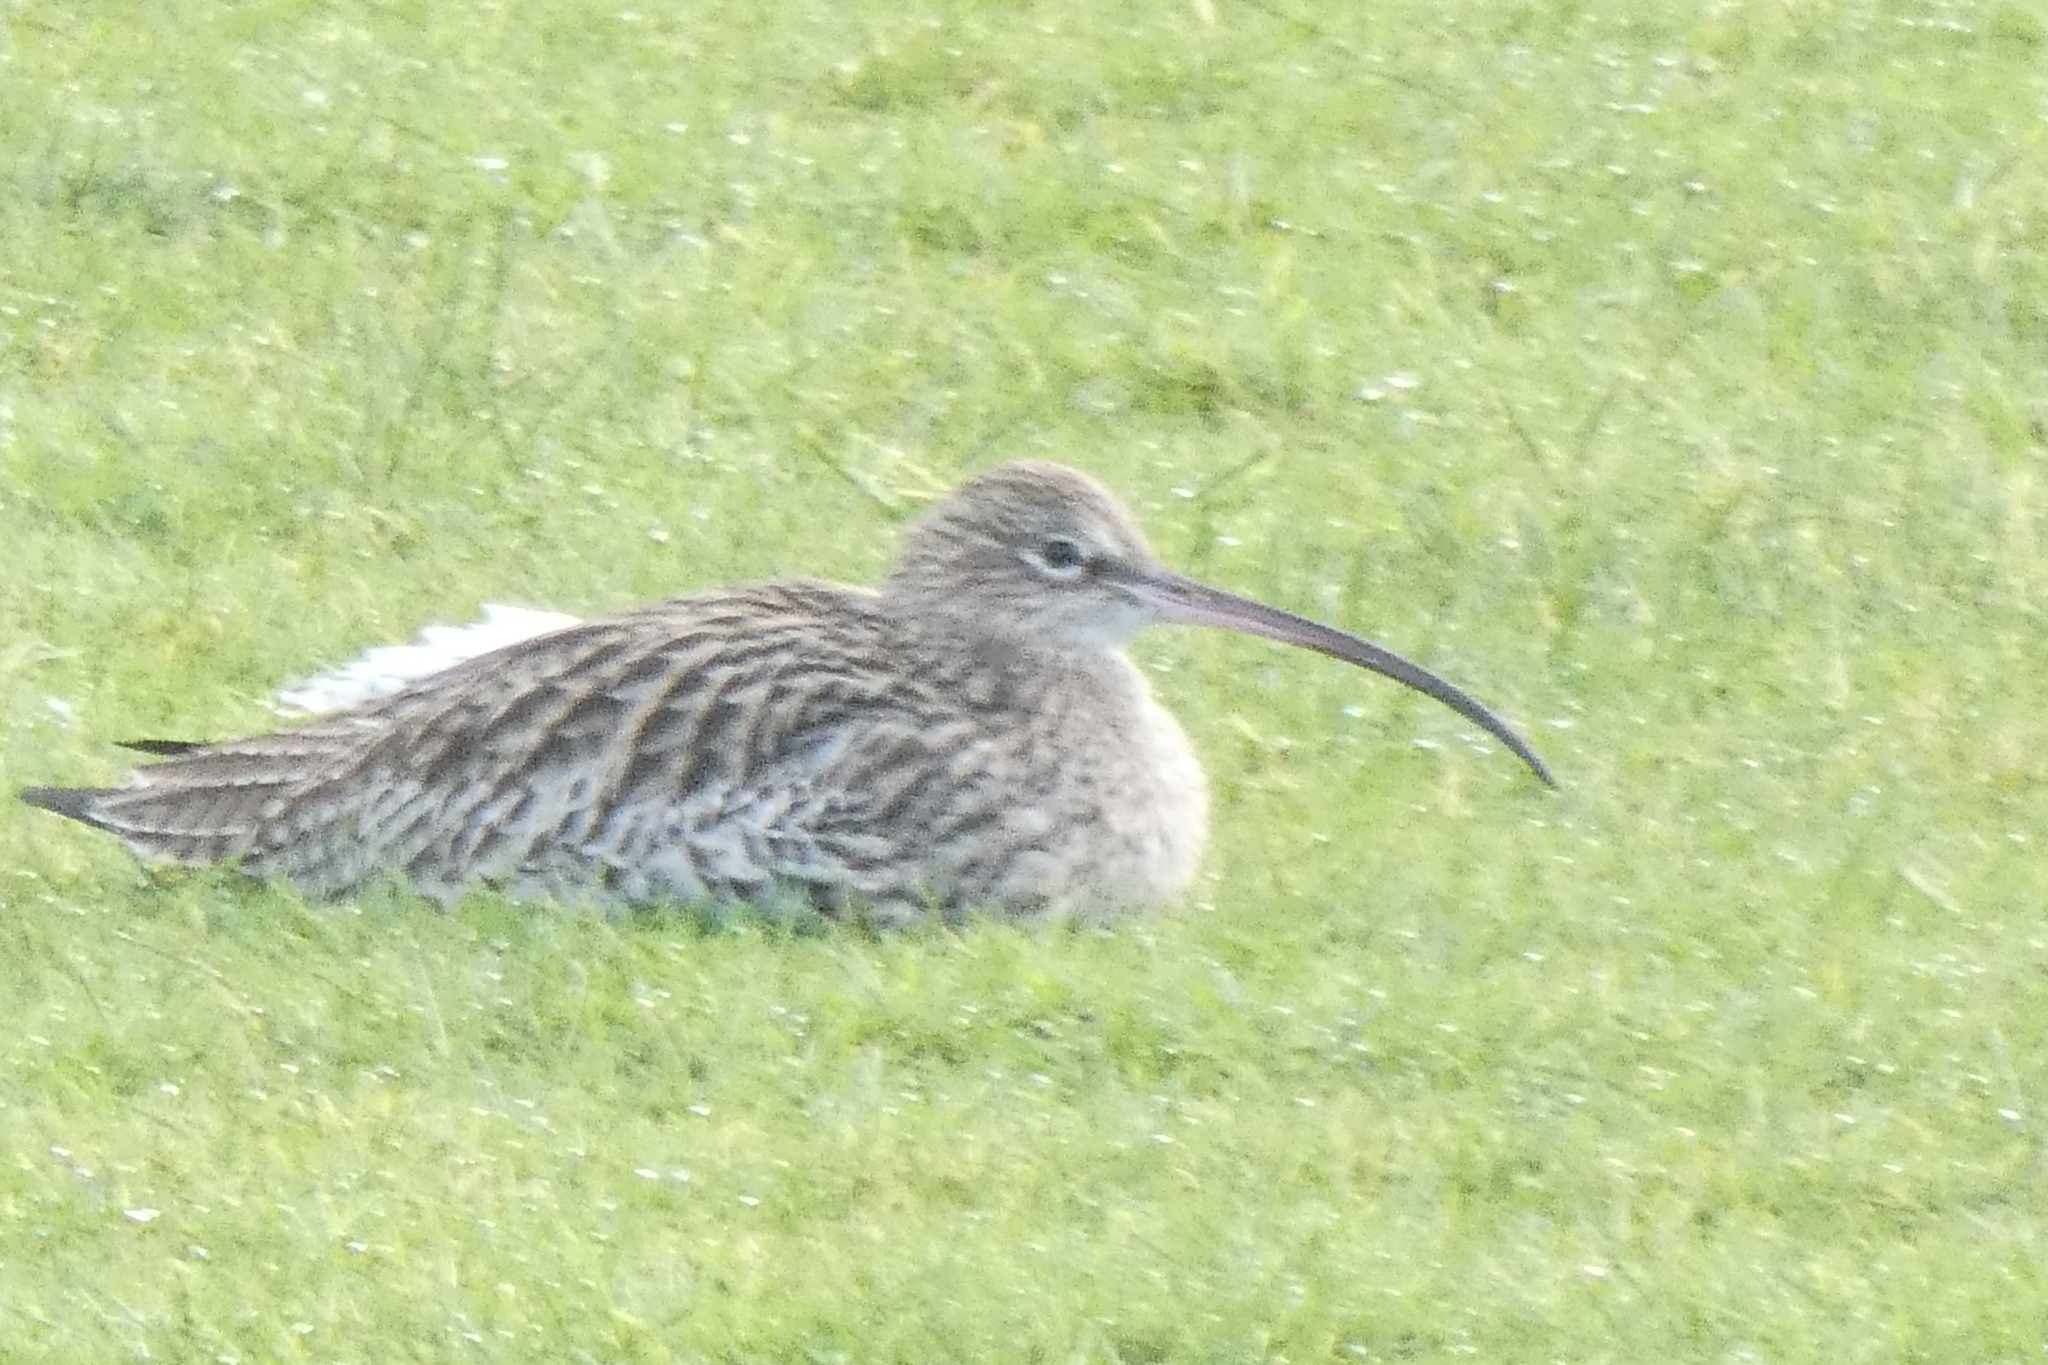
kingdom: Animalia
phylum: Chordata
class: Aves
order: Charadriiformes
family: Scolopacidae
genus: Numenius
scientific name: Numenius arquata
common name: Eurasian curlew
